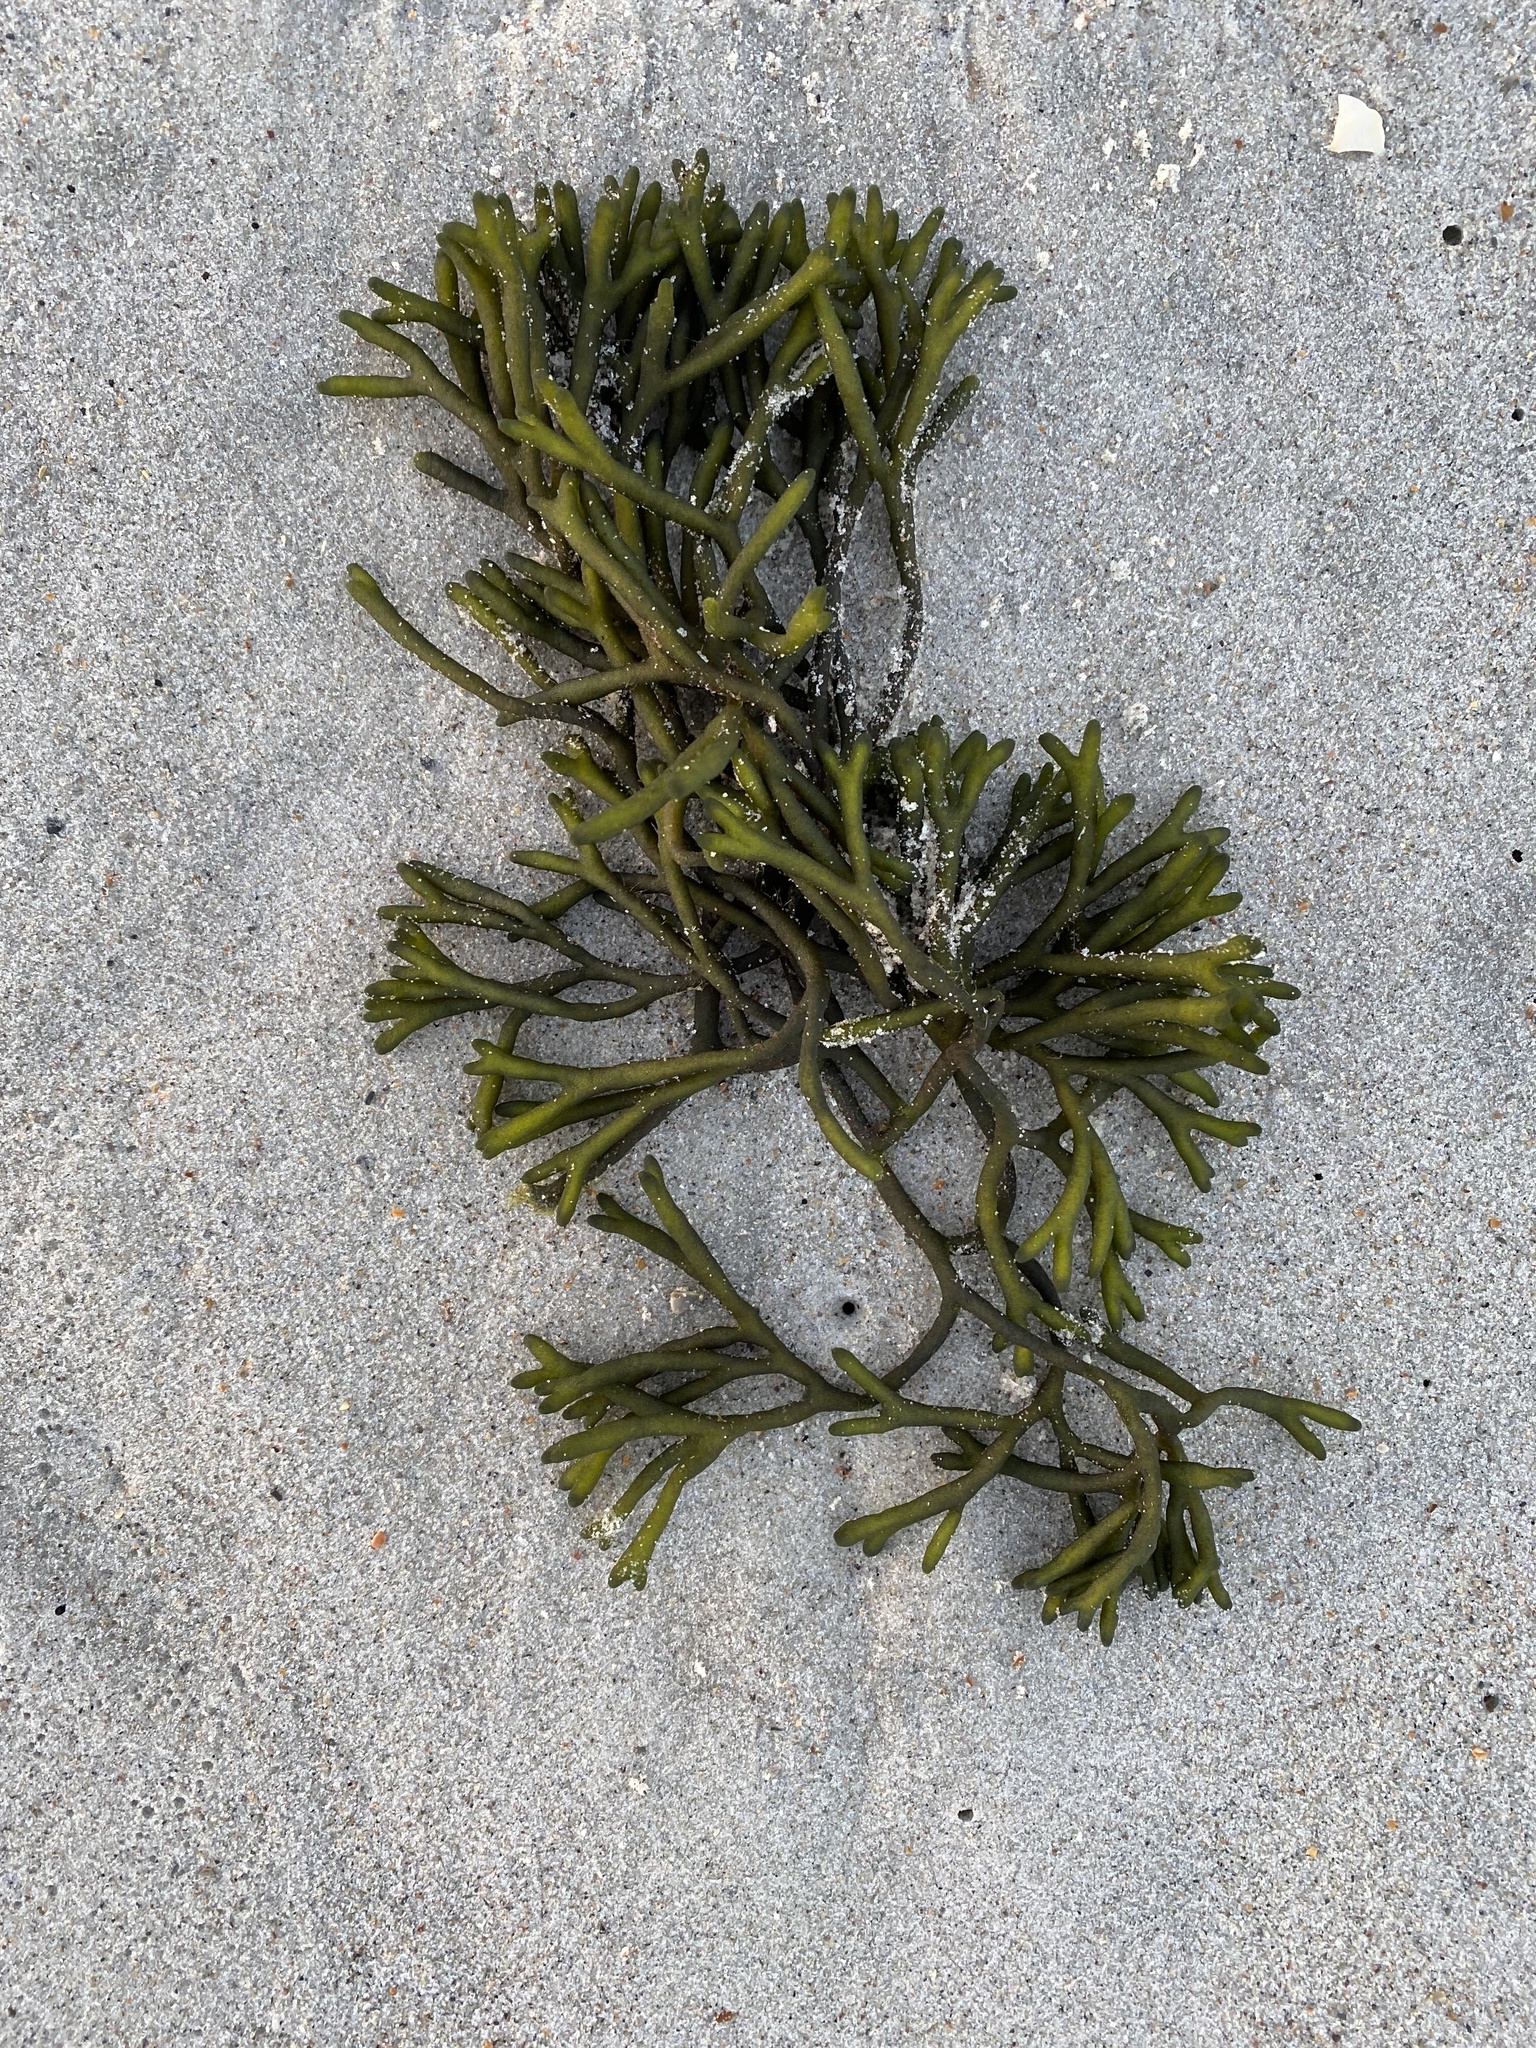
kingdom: Plantae
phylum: Chlorophyta
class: Ulvophyceae
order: Bryopsidales
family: Codiaceae
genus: Codium
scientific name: Codium fragile
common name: Dead man's fingers
